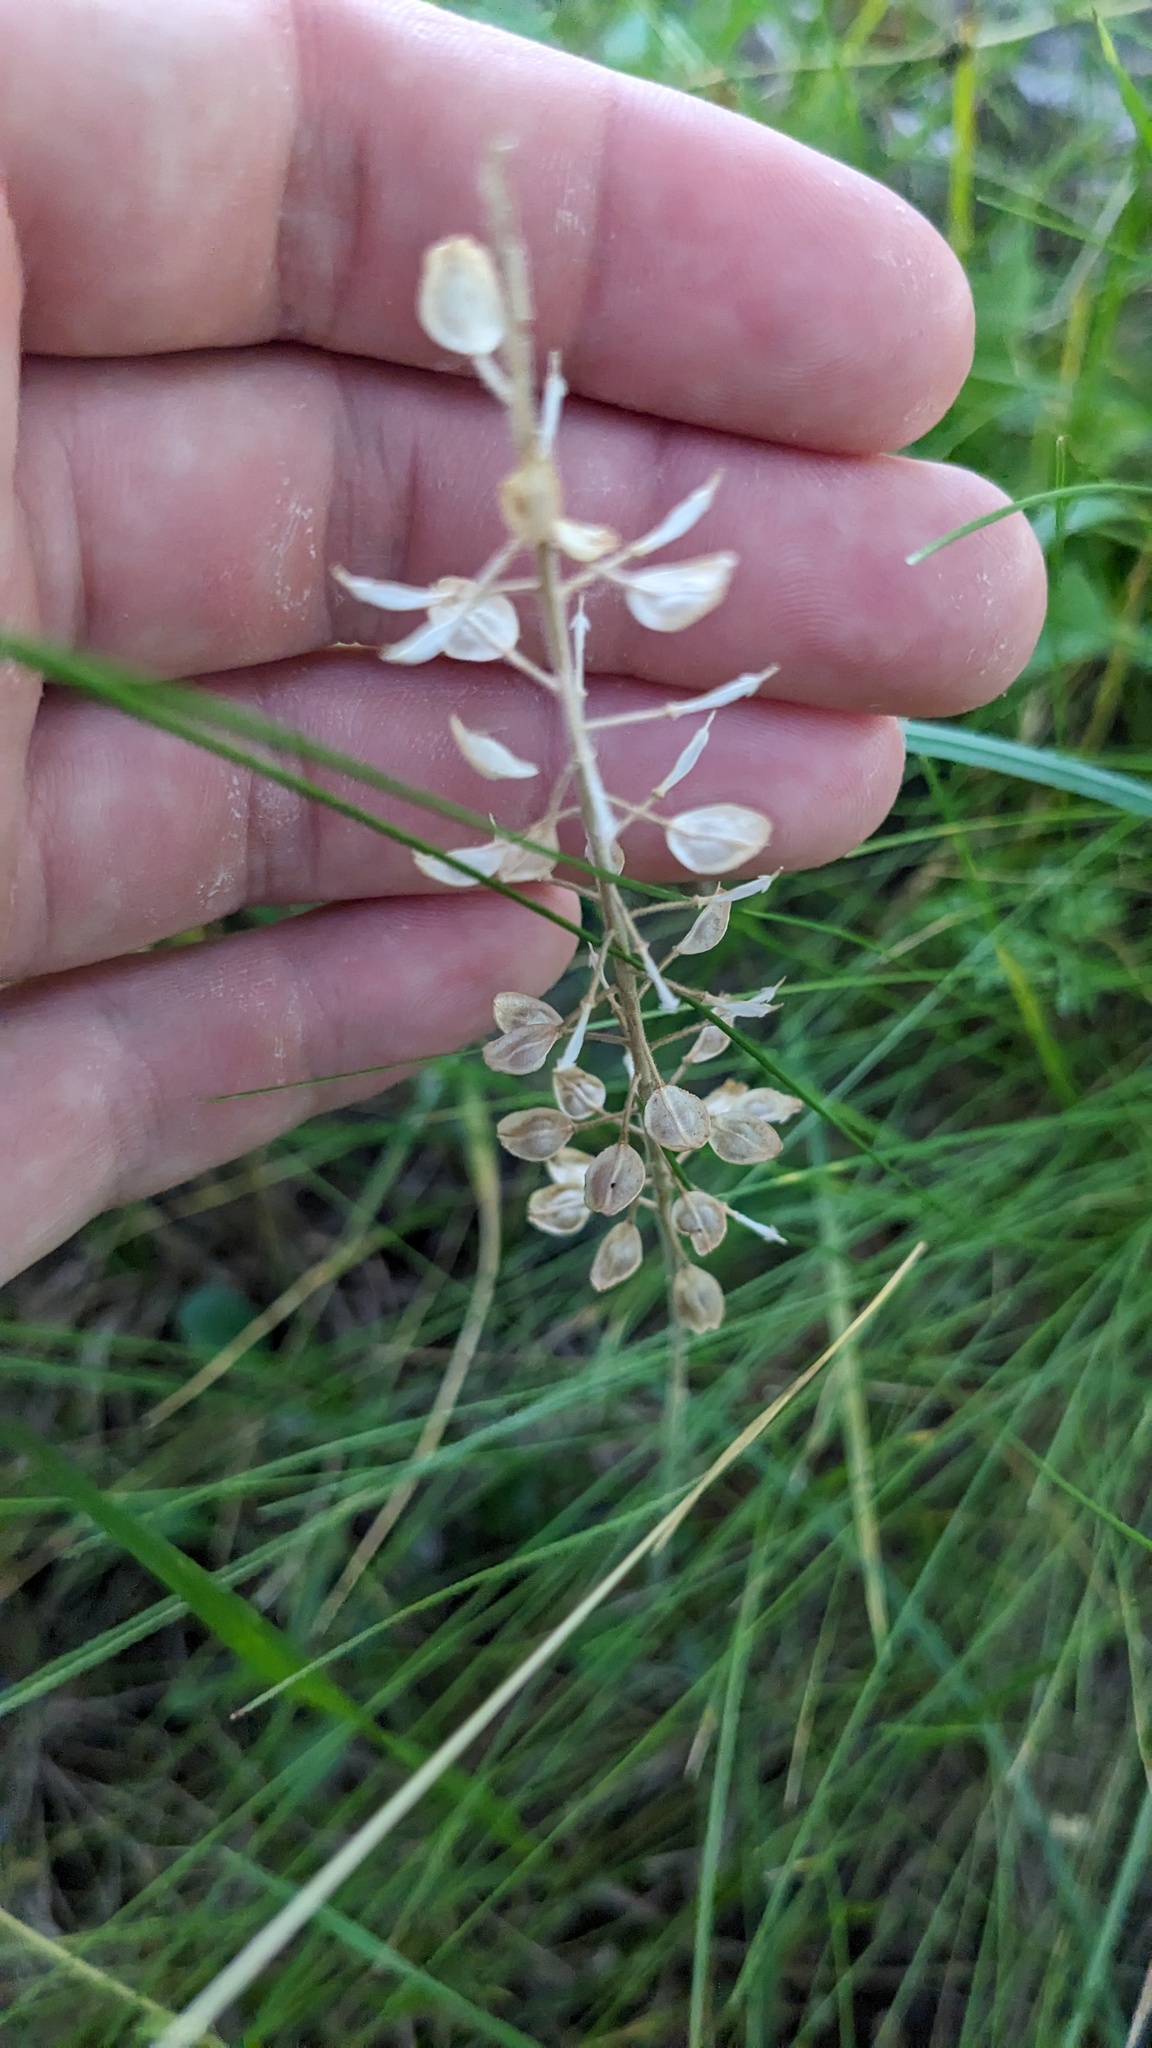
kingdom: Plantae
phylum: Tracheophyta
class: Magnoliopsida
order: Brassicales
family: Brassicaceae
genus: Lepidium
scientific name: Lepidium campestre
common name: Field pepperwort
